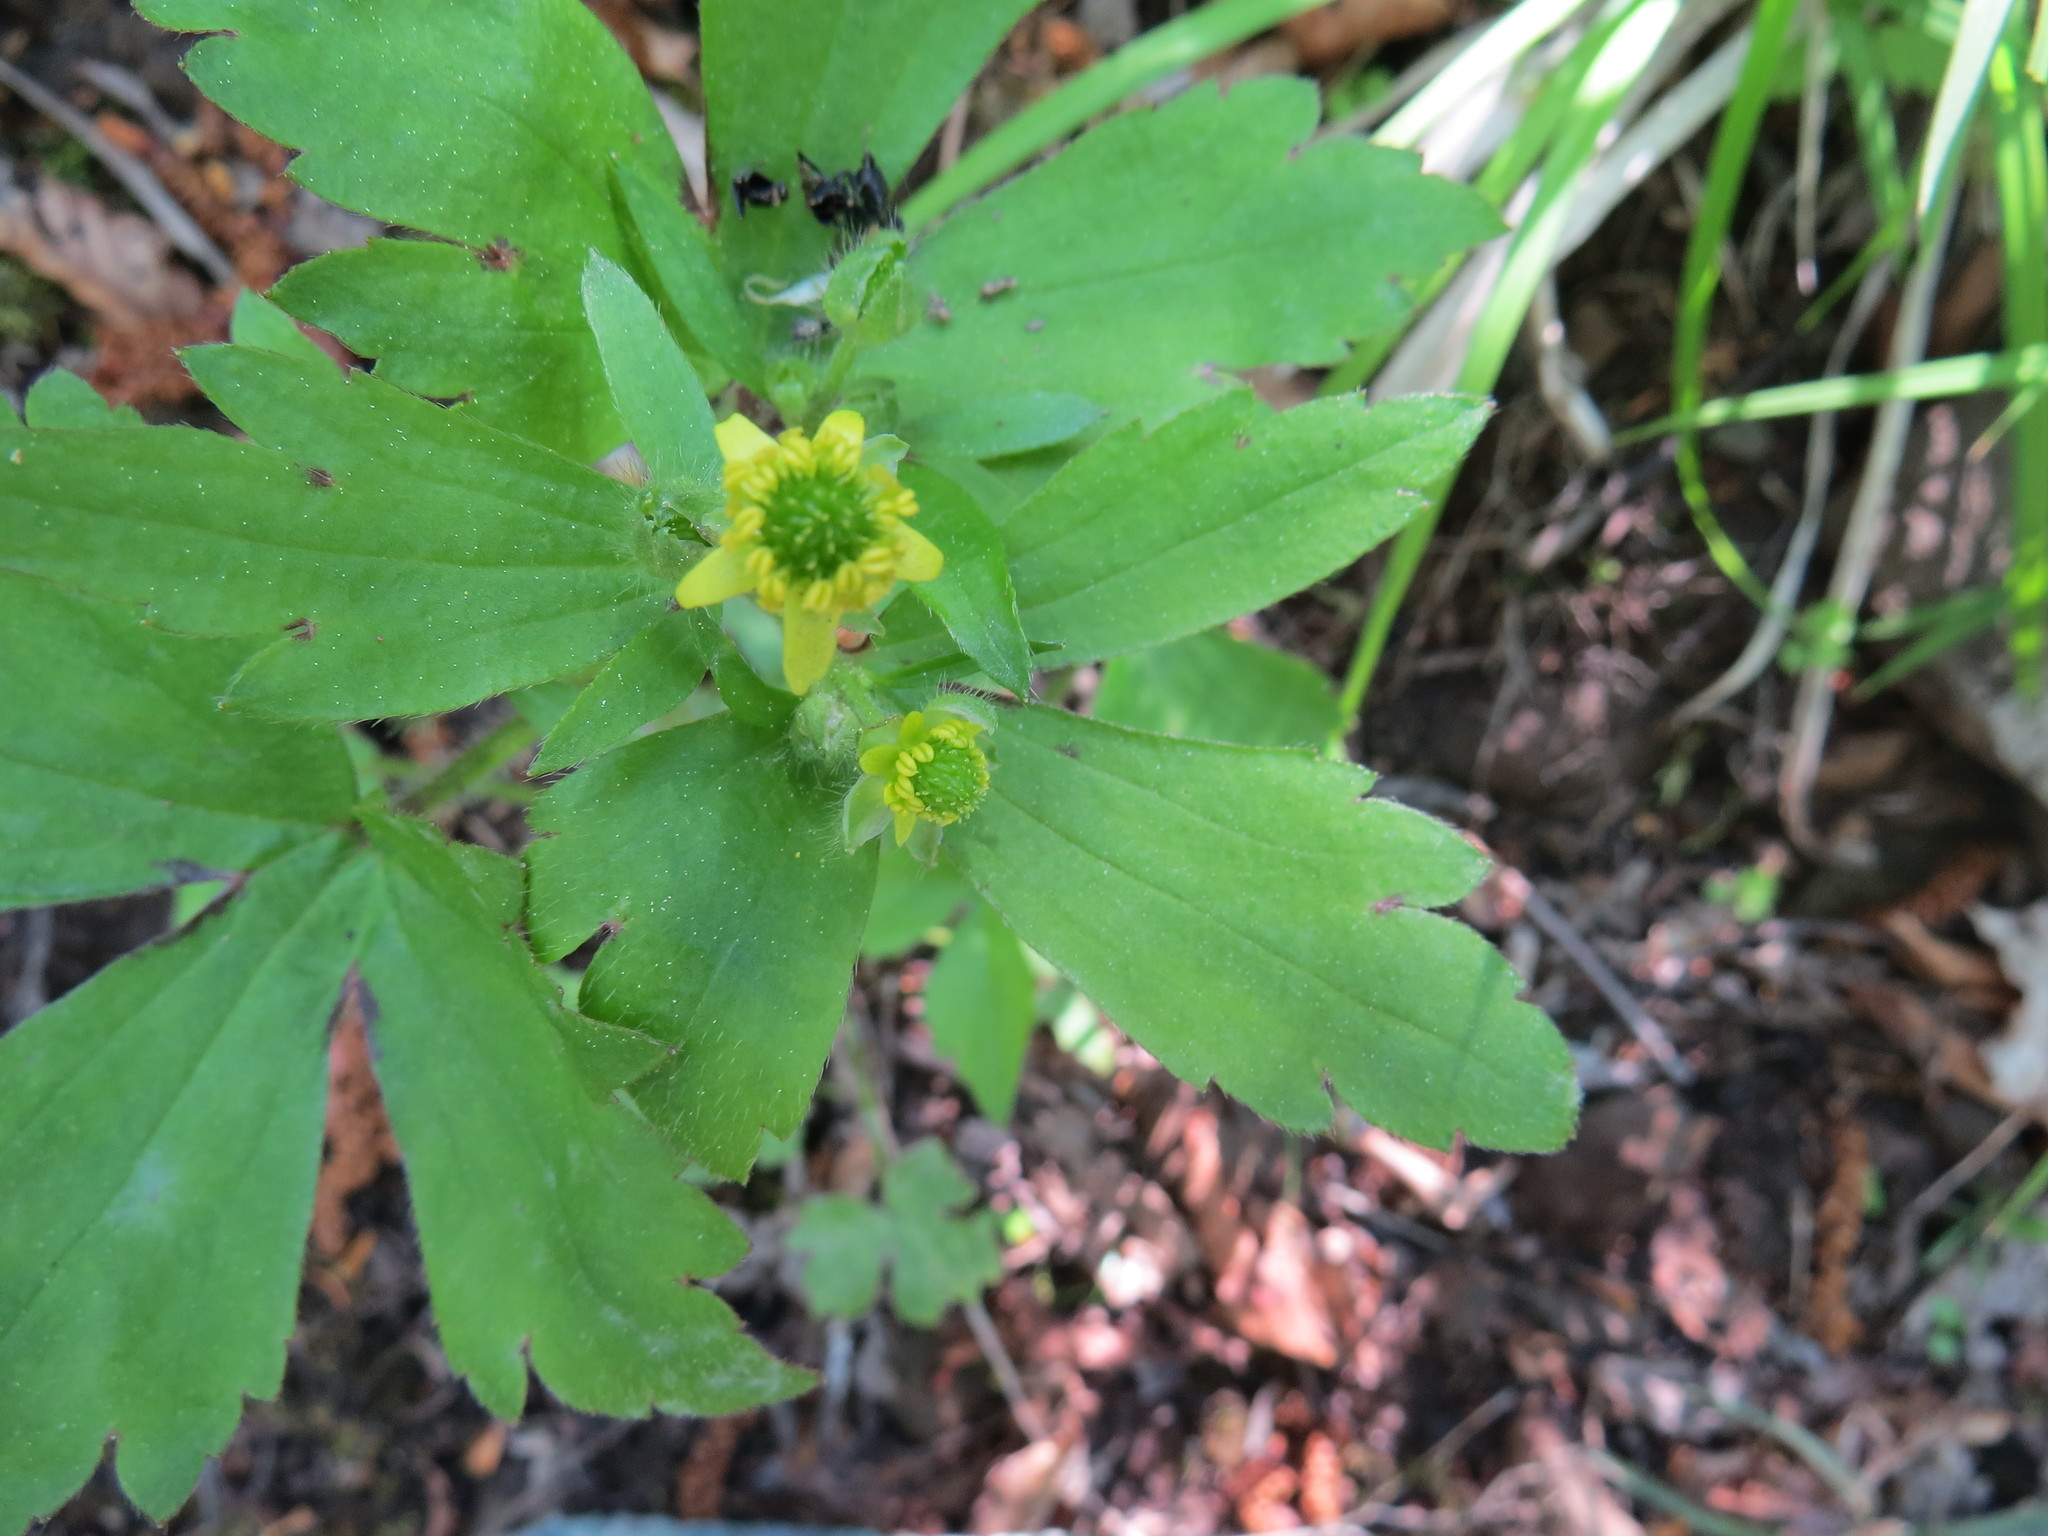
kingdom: Plantae
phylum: Tracheophyta
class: Magnoliopsida
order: Ranunculales
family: Ranunculaceae
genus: Ranunculus
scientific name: Ranunculus recurvatus
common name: Blisterwort
